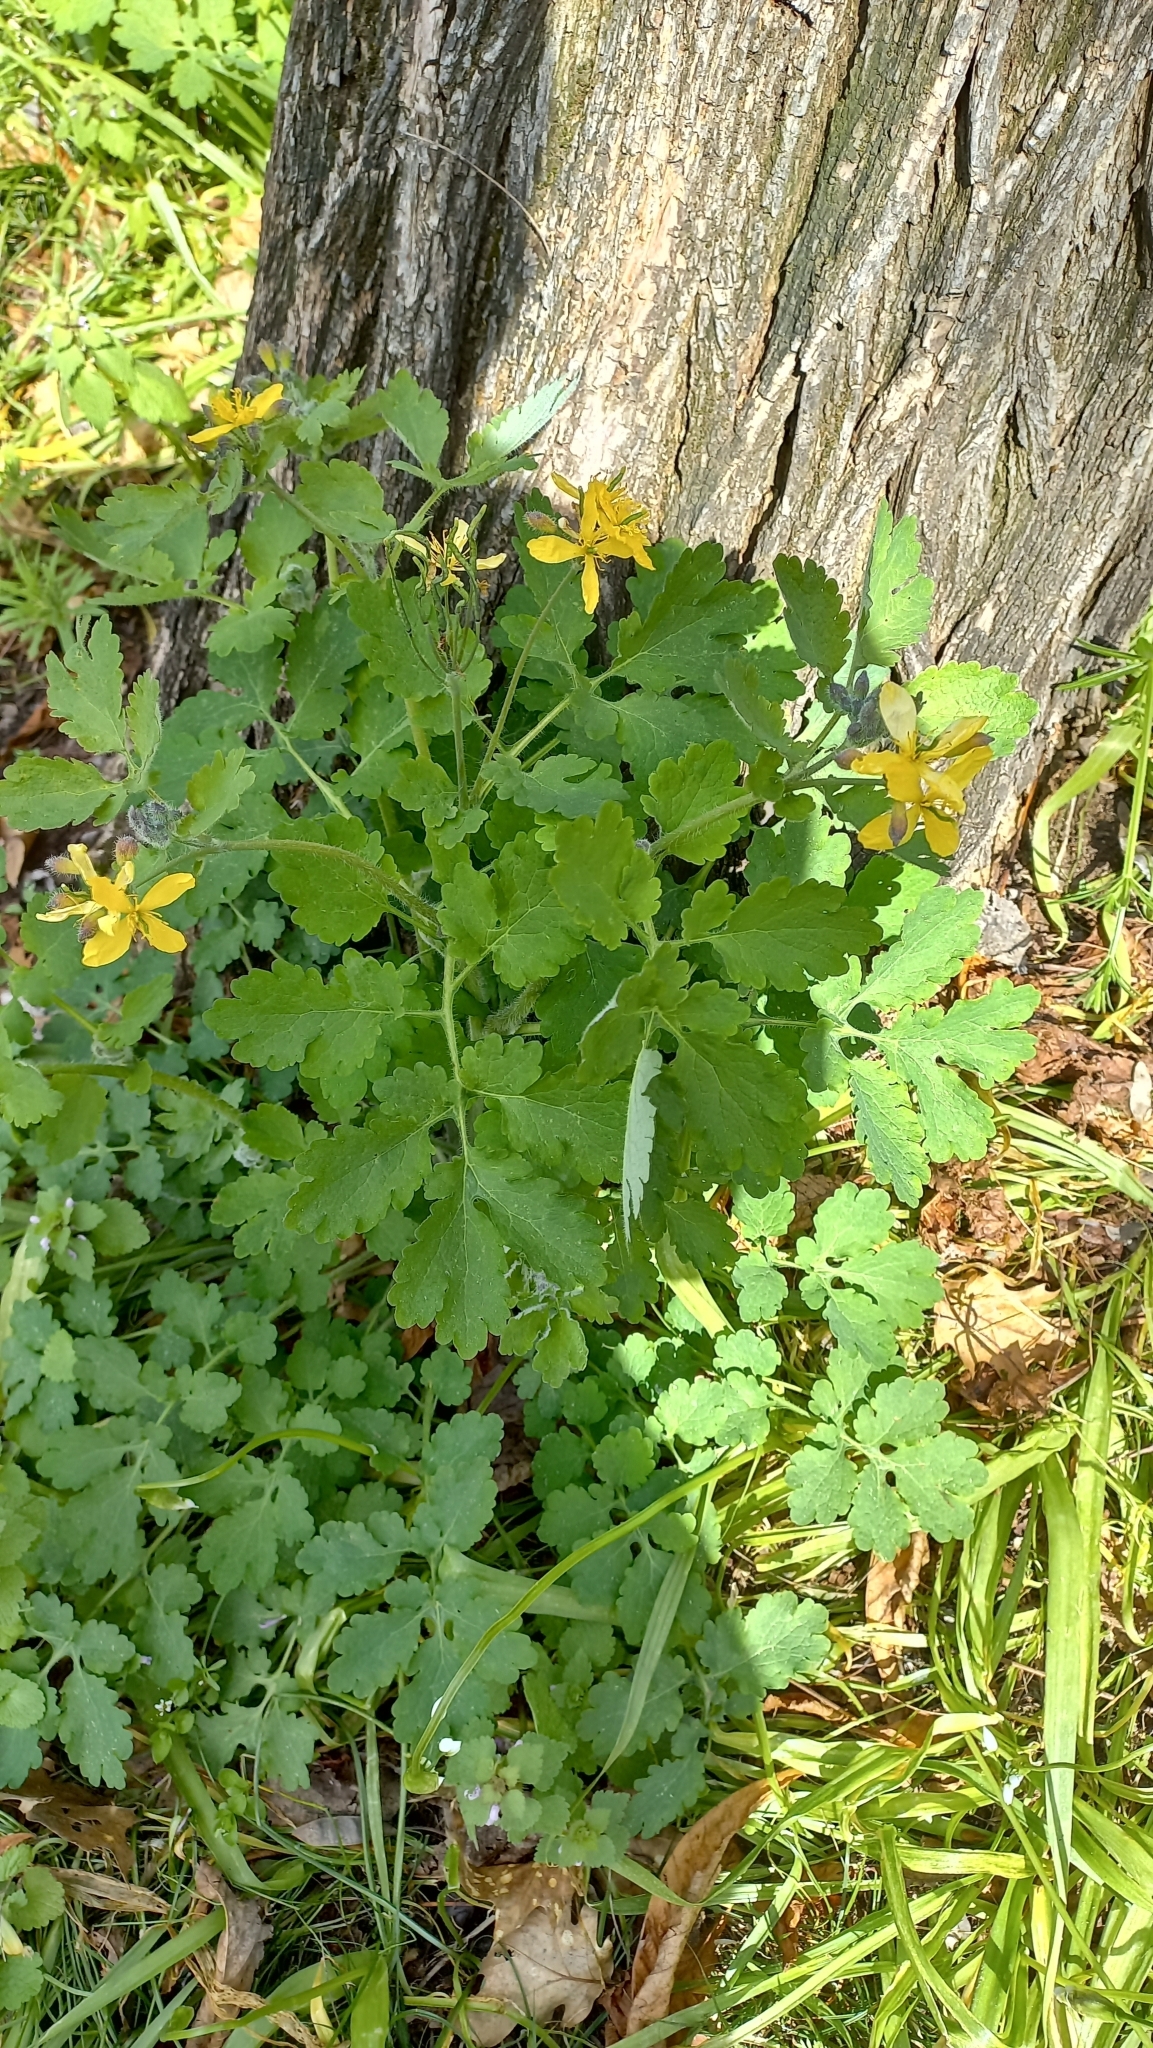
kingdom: Plantae
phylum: Tracheophyta
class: Magnoliopsida
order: Ranunculales
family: Papaveraceae
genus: Chelidonium
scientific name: Chelidonium majus
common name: Greater celandine
